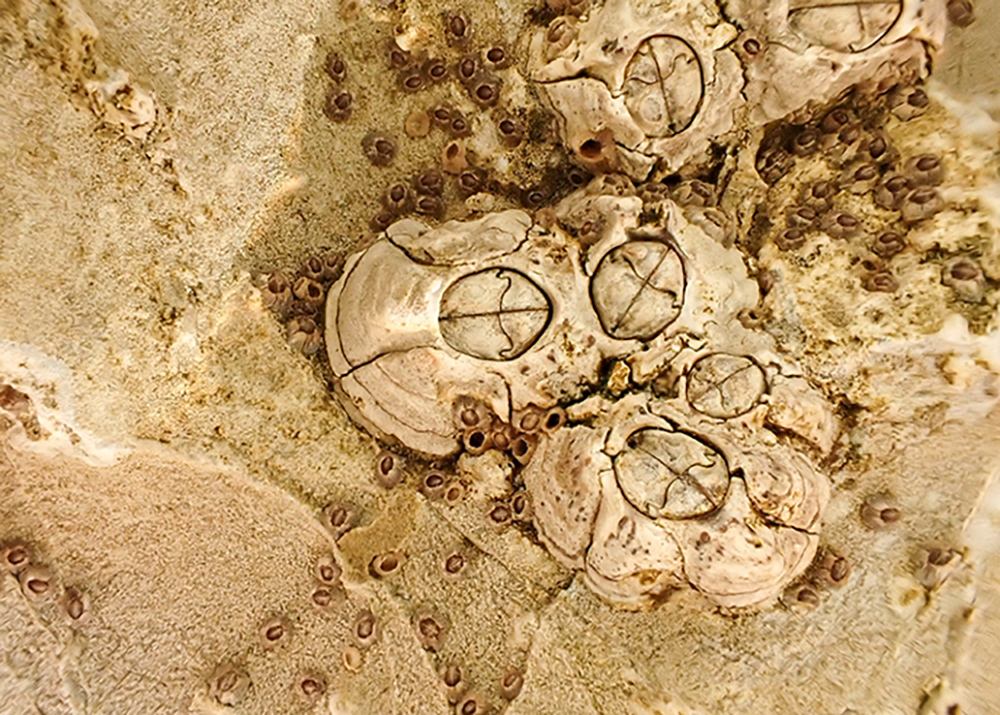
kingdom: Animalia
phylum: Arthropoda
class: Maxillopoda
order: Sessilia
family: Chthamalidae
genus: Chthamalus
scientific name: Chthamalus stellatus
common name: Poli's stellate barnacle
